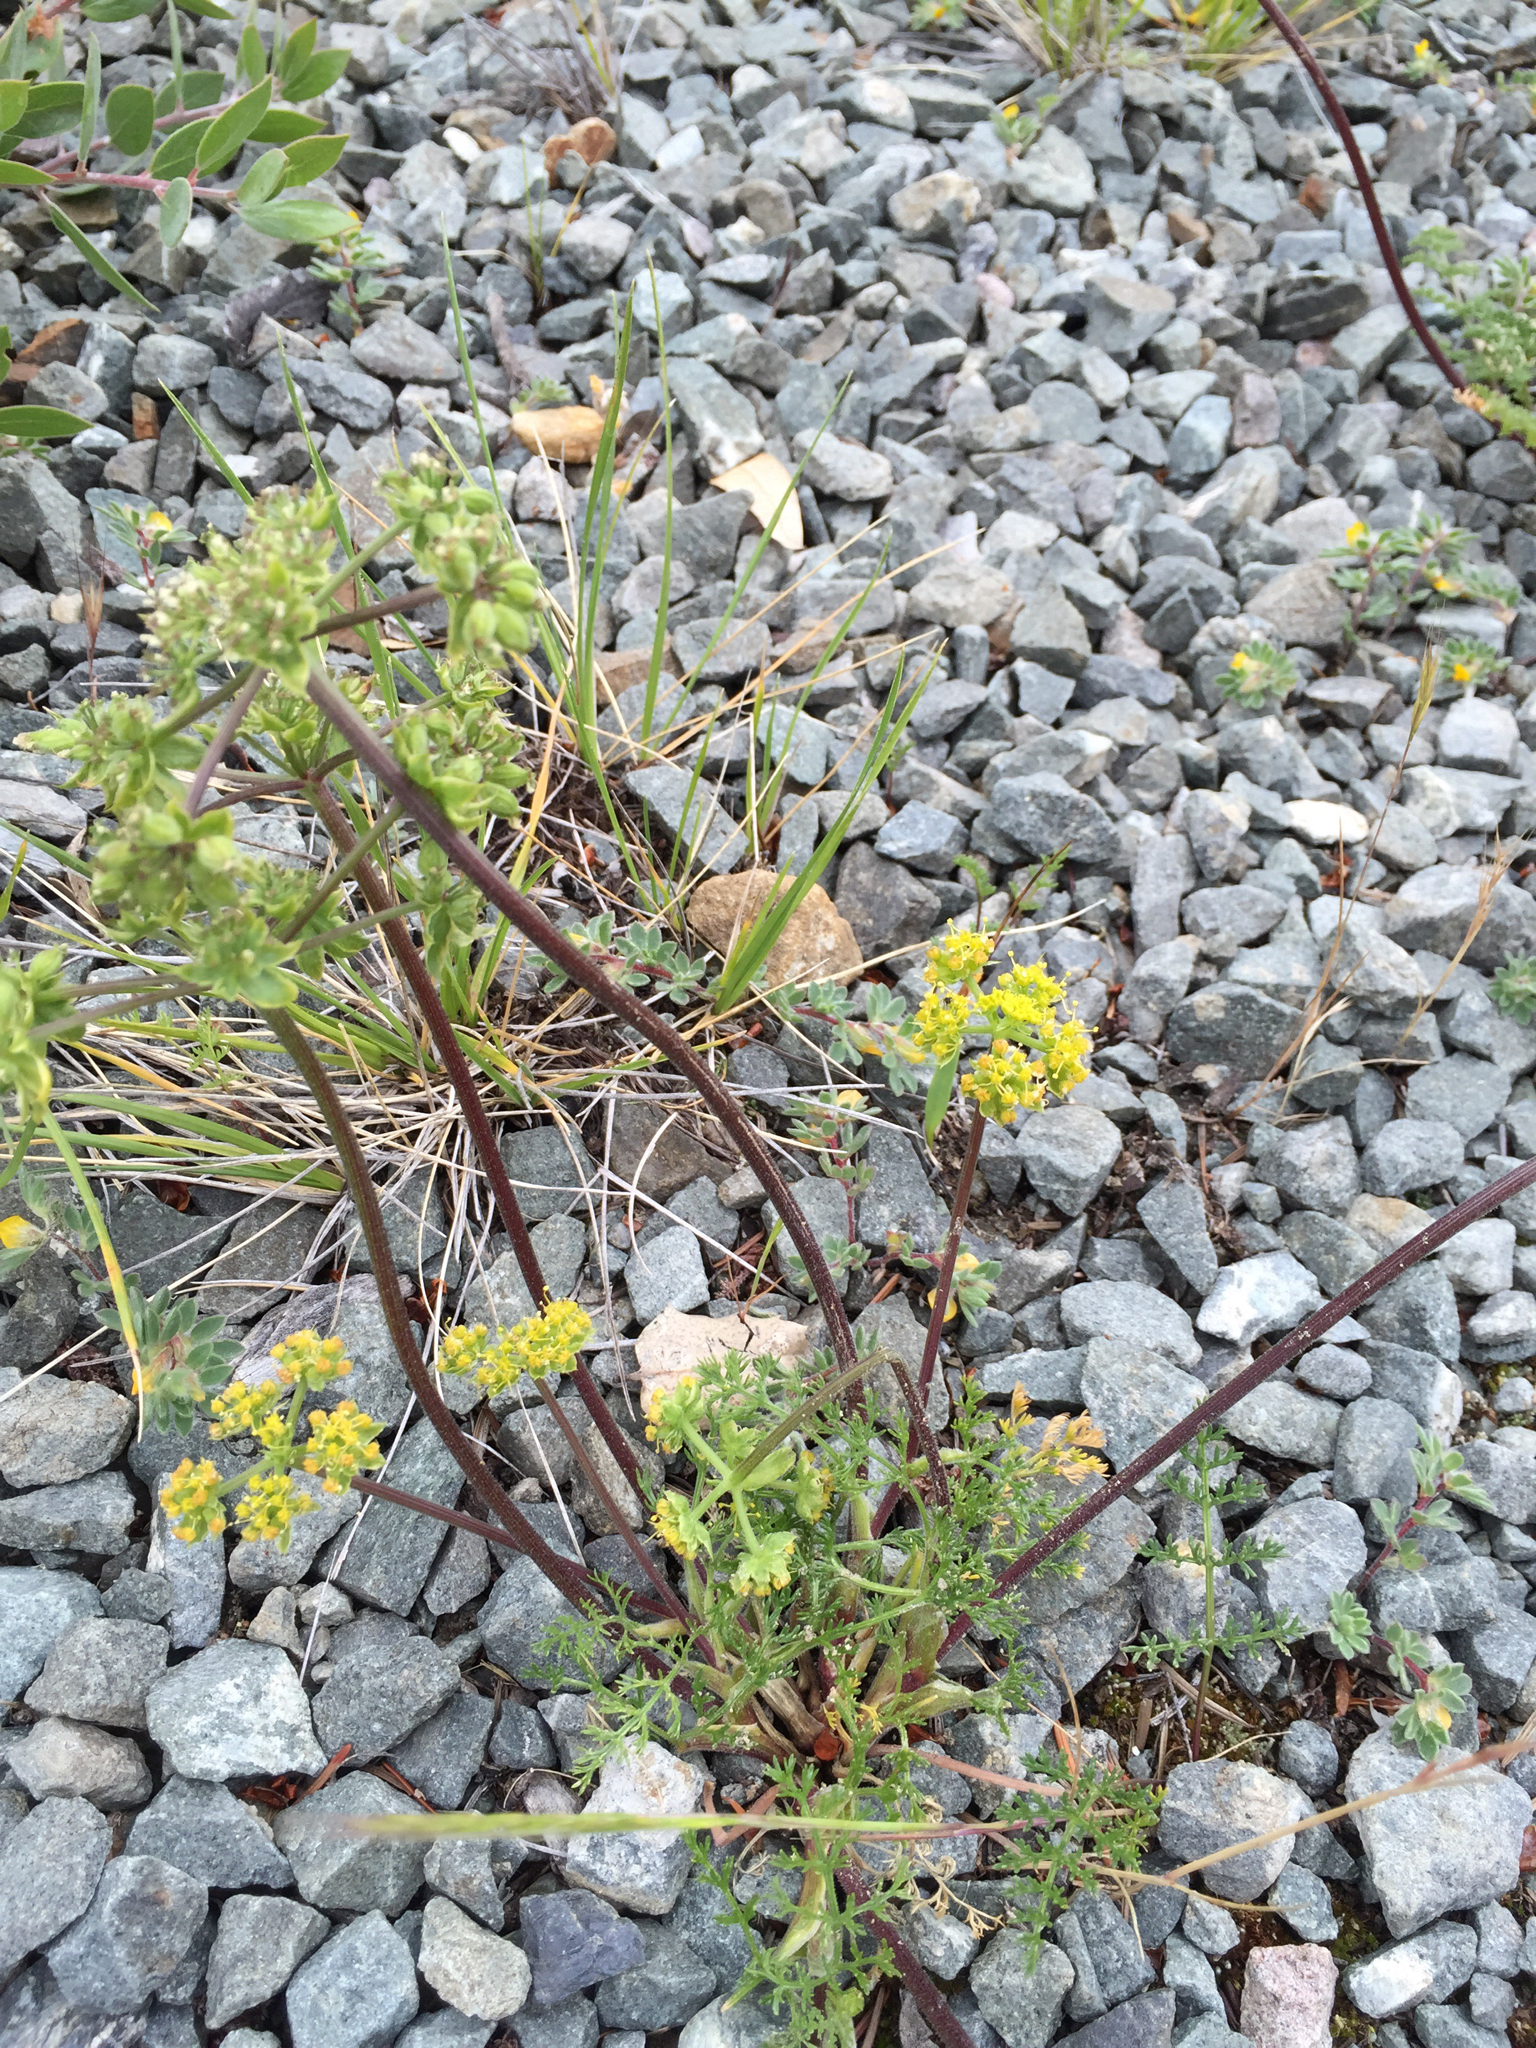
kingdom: Plantae
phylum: Tracheophyta
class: Magnoliopsida
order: Apiales
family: Apiaceae
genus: Lomatium
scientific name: Lomatium utriculatum
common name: Fine-leaf desert-parsley
